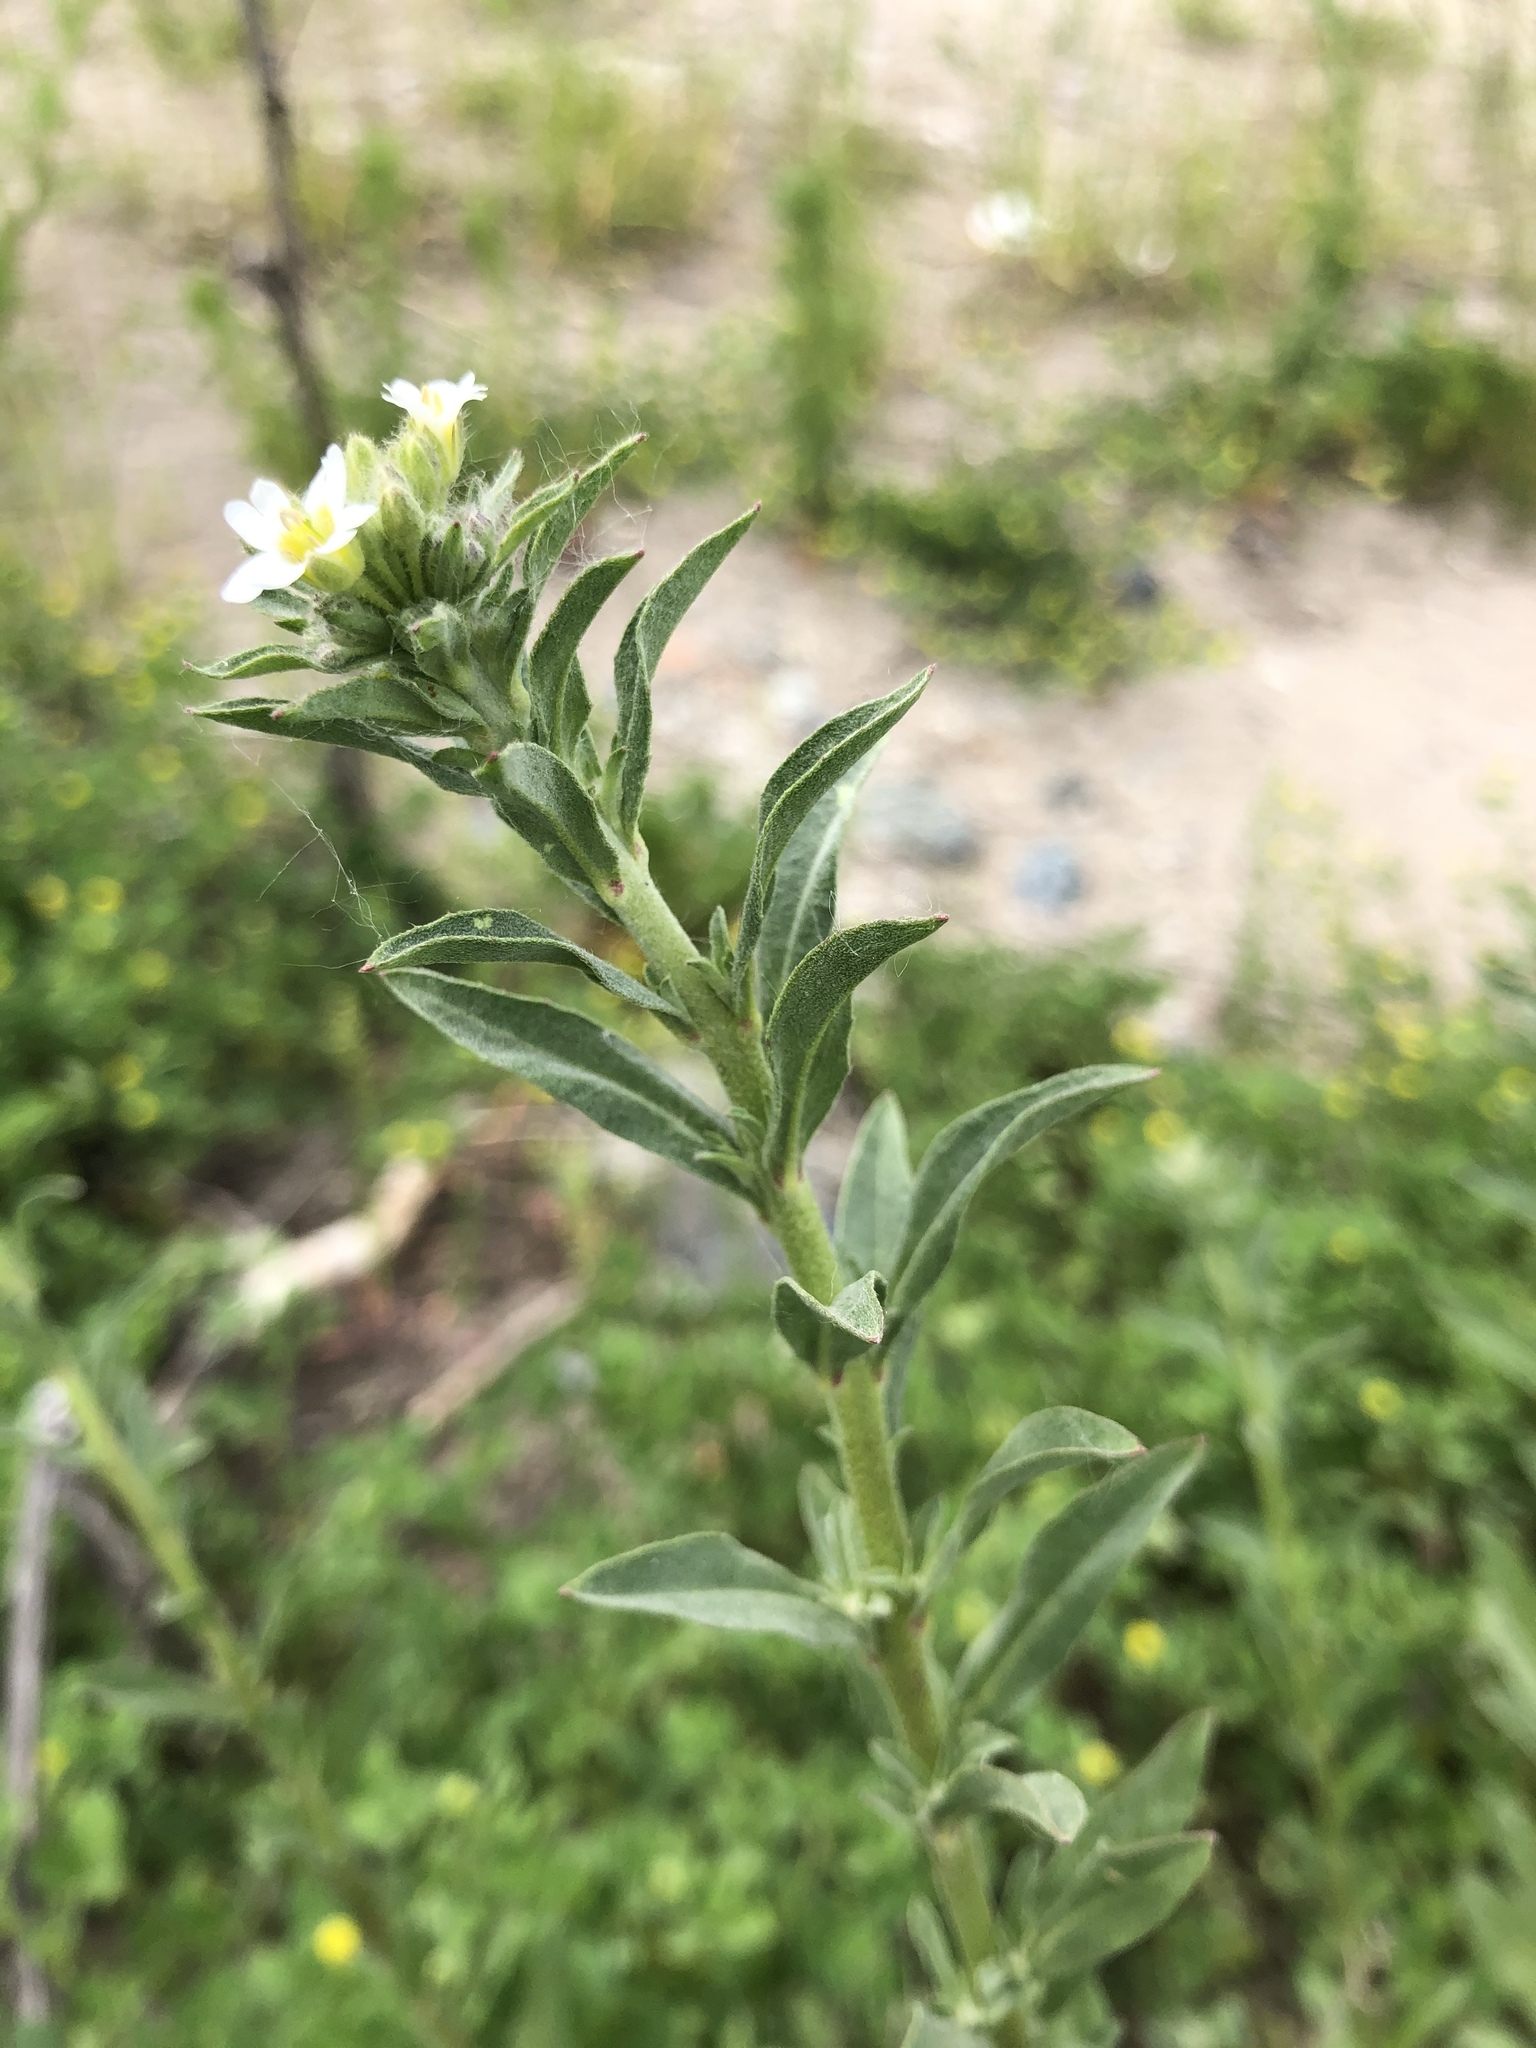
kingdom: Plantae
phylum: Tracheophyta
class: Magnoliopsida
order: Brassicales
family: Brassicaceae
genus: Berteroa
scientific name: Berteroa incana
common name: Hoary alison
